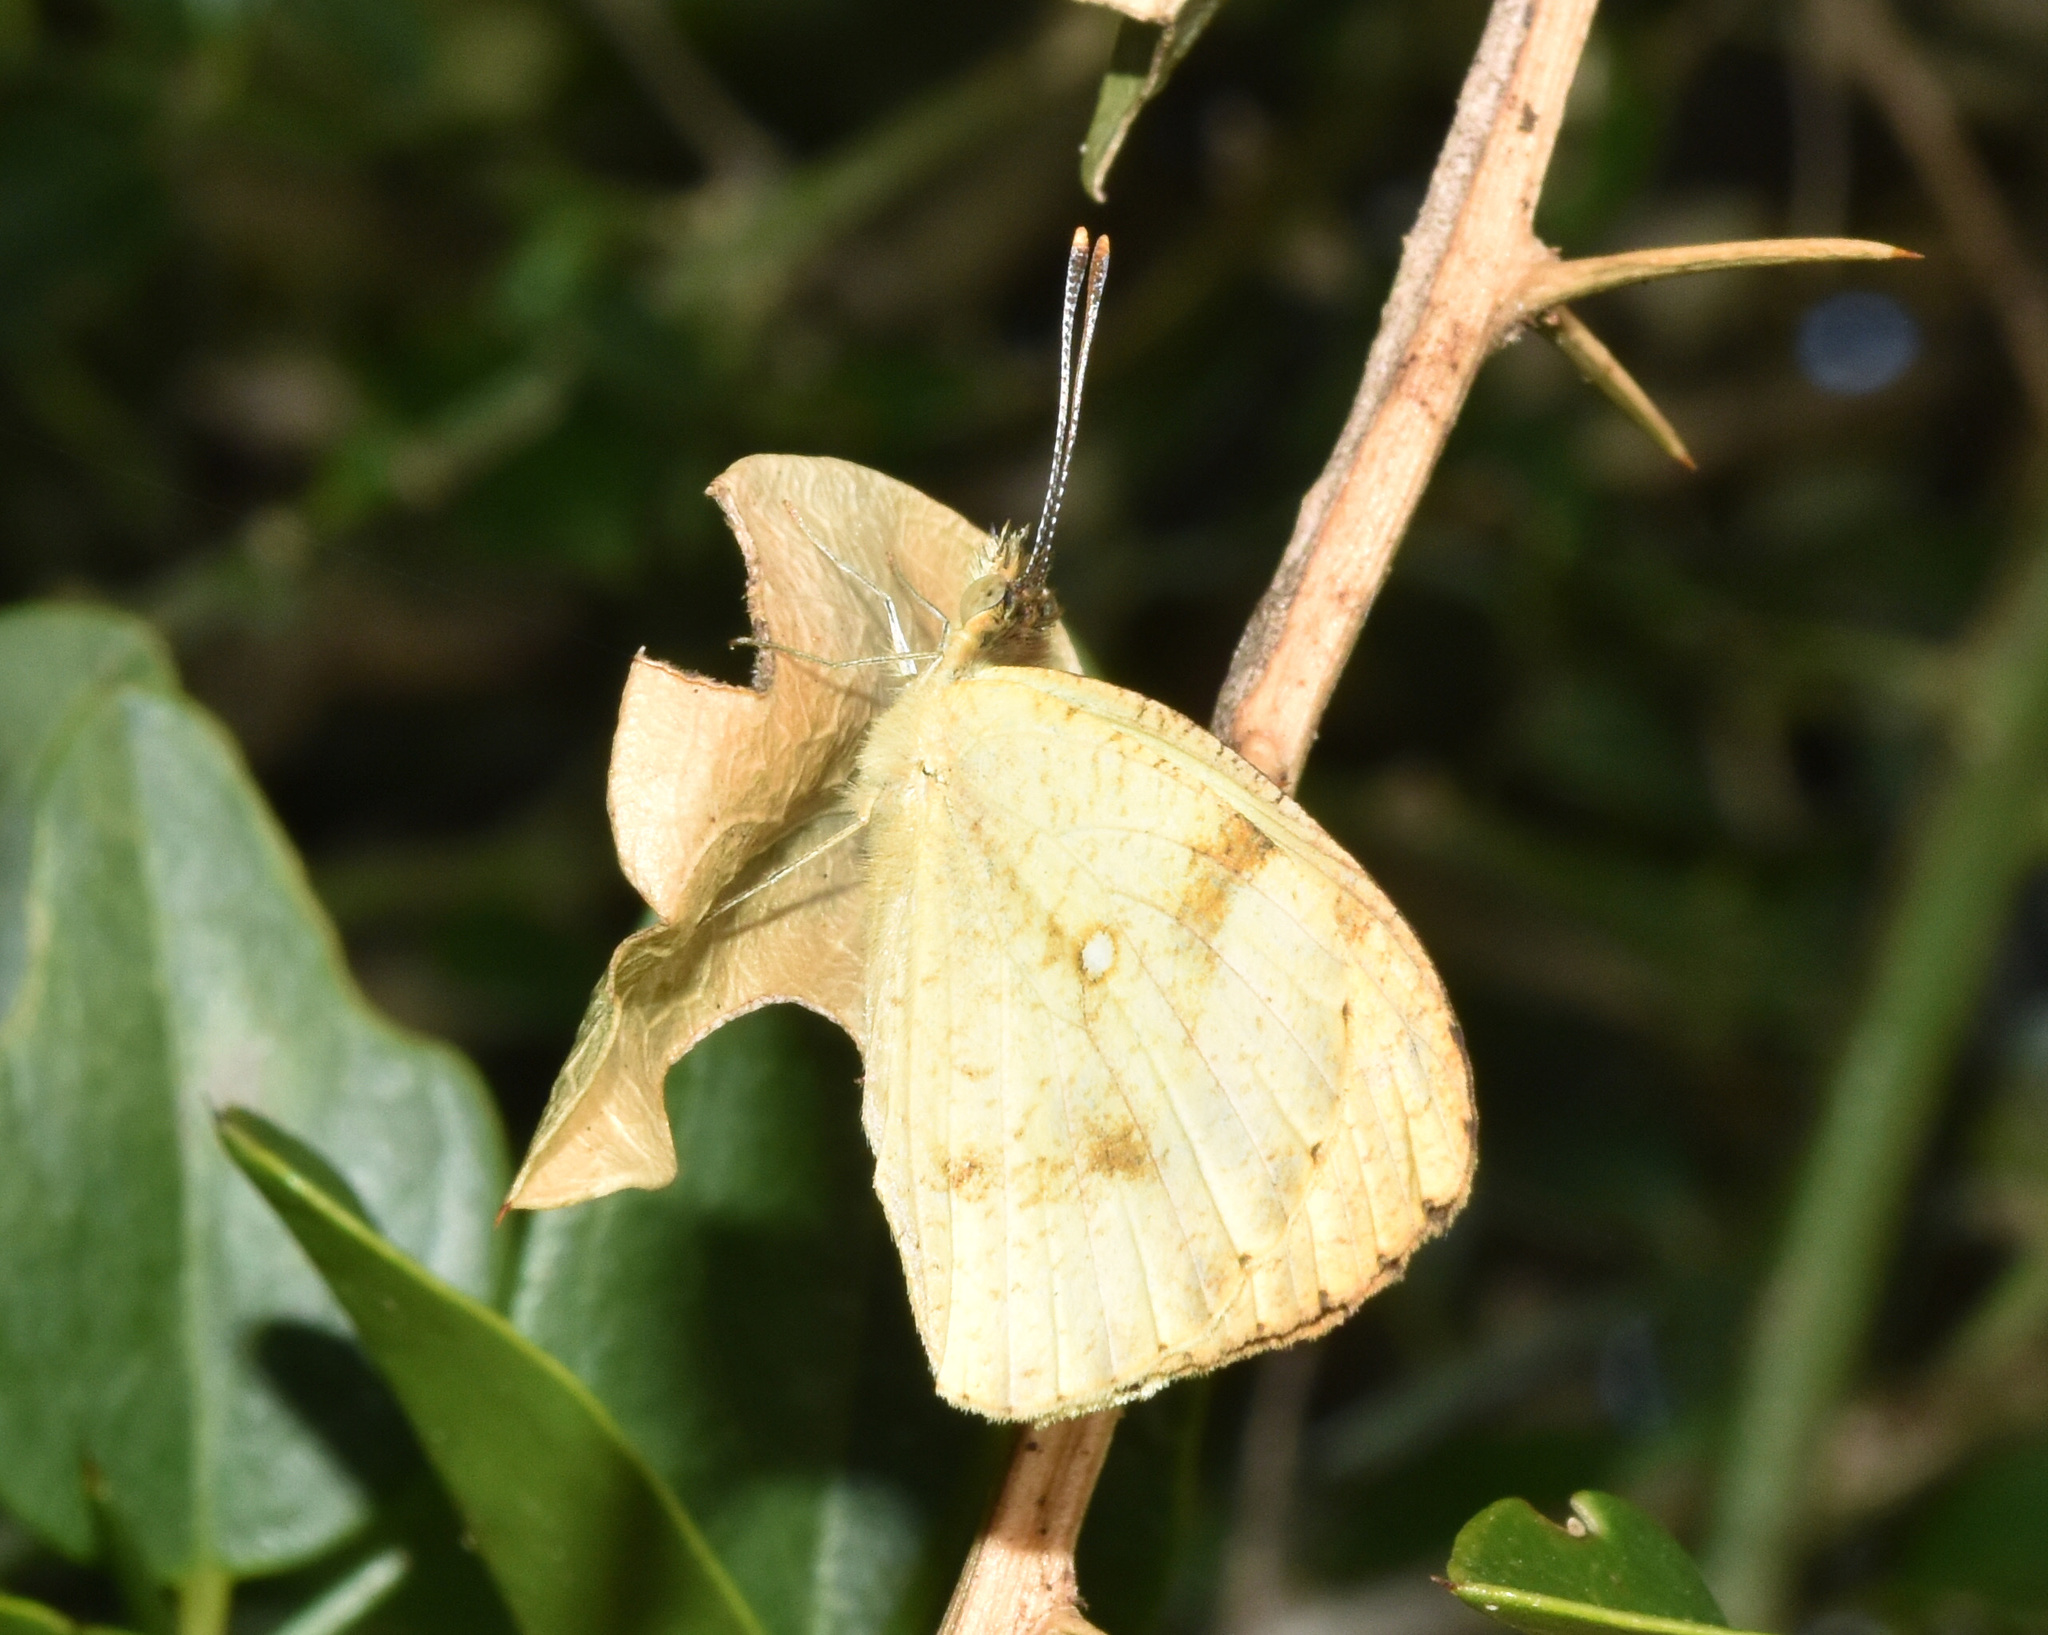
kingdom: Animalia
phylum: Arthropoda
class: Insecta
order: Lepidoptera
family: Pieridae
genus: Colotis
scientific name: Colotis auxo
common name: Sulphur orange tip
